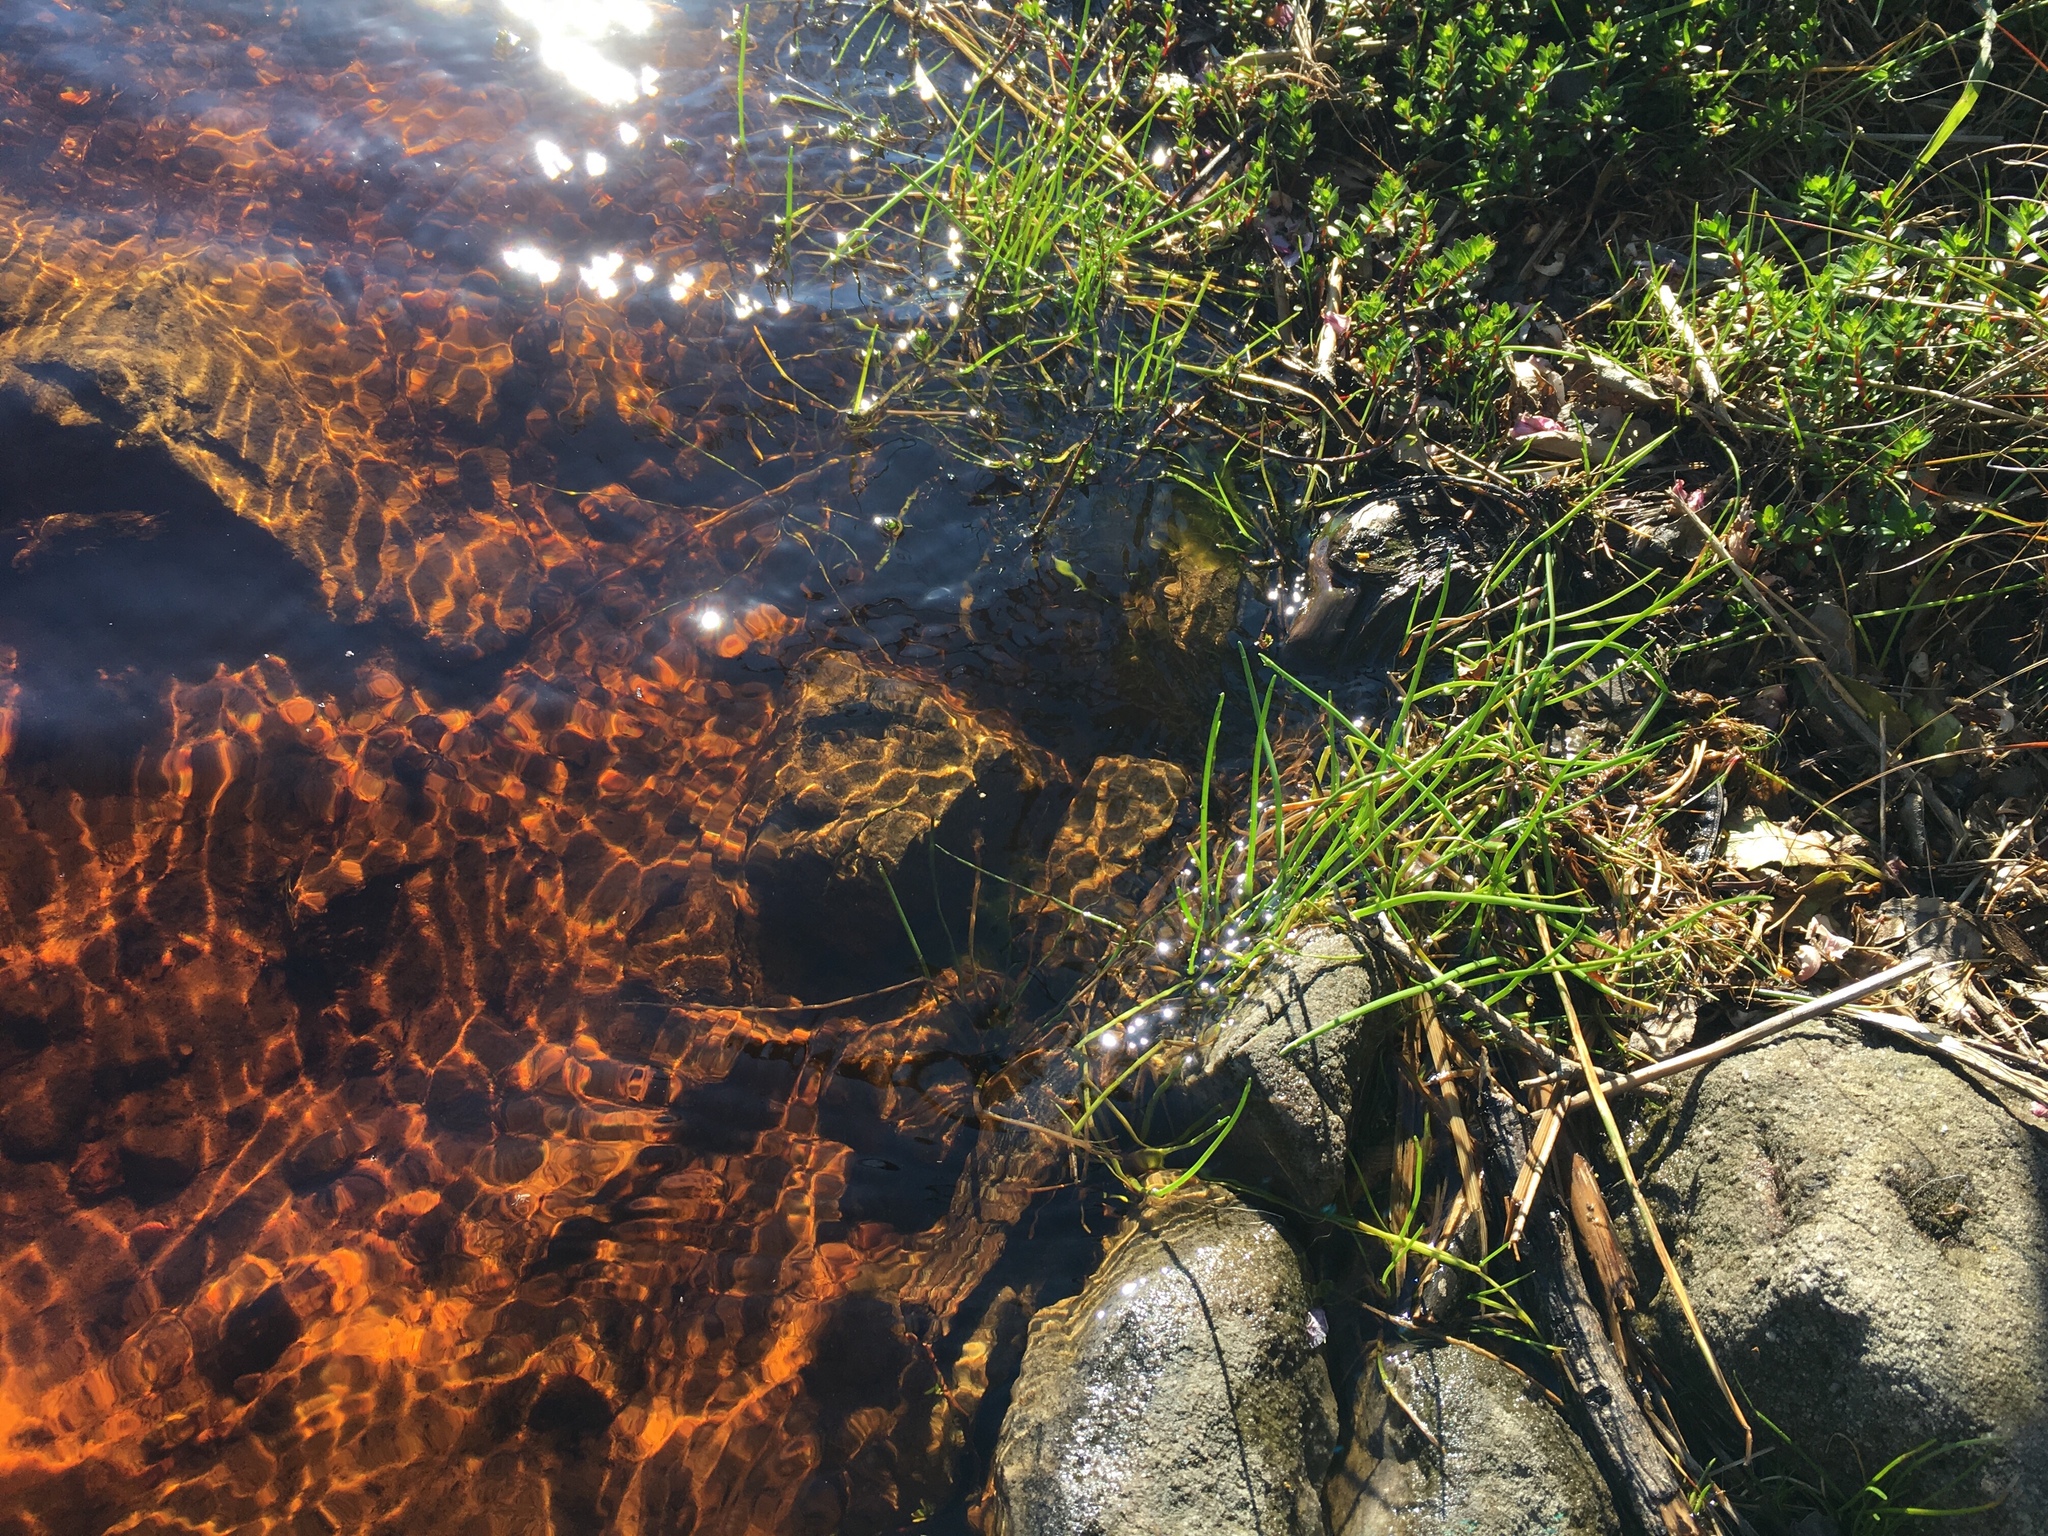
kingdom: Plantae
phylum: Tracheophyta
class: Liliopsida
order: Poales
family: Cyperaceae
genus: Isolepis
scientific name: Isolepis prolifera
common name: Proliferating bulrush
